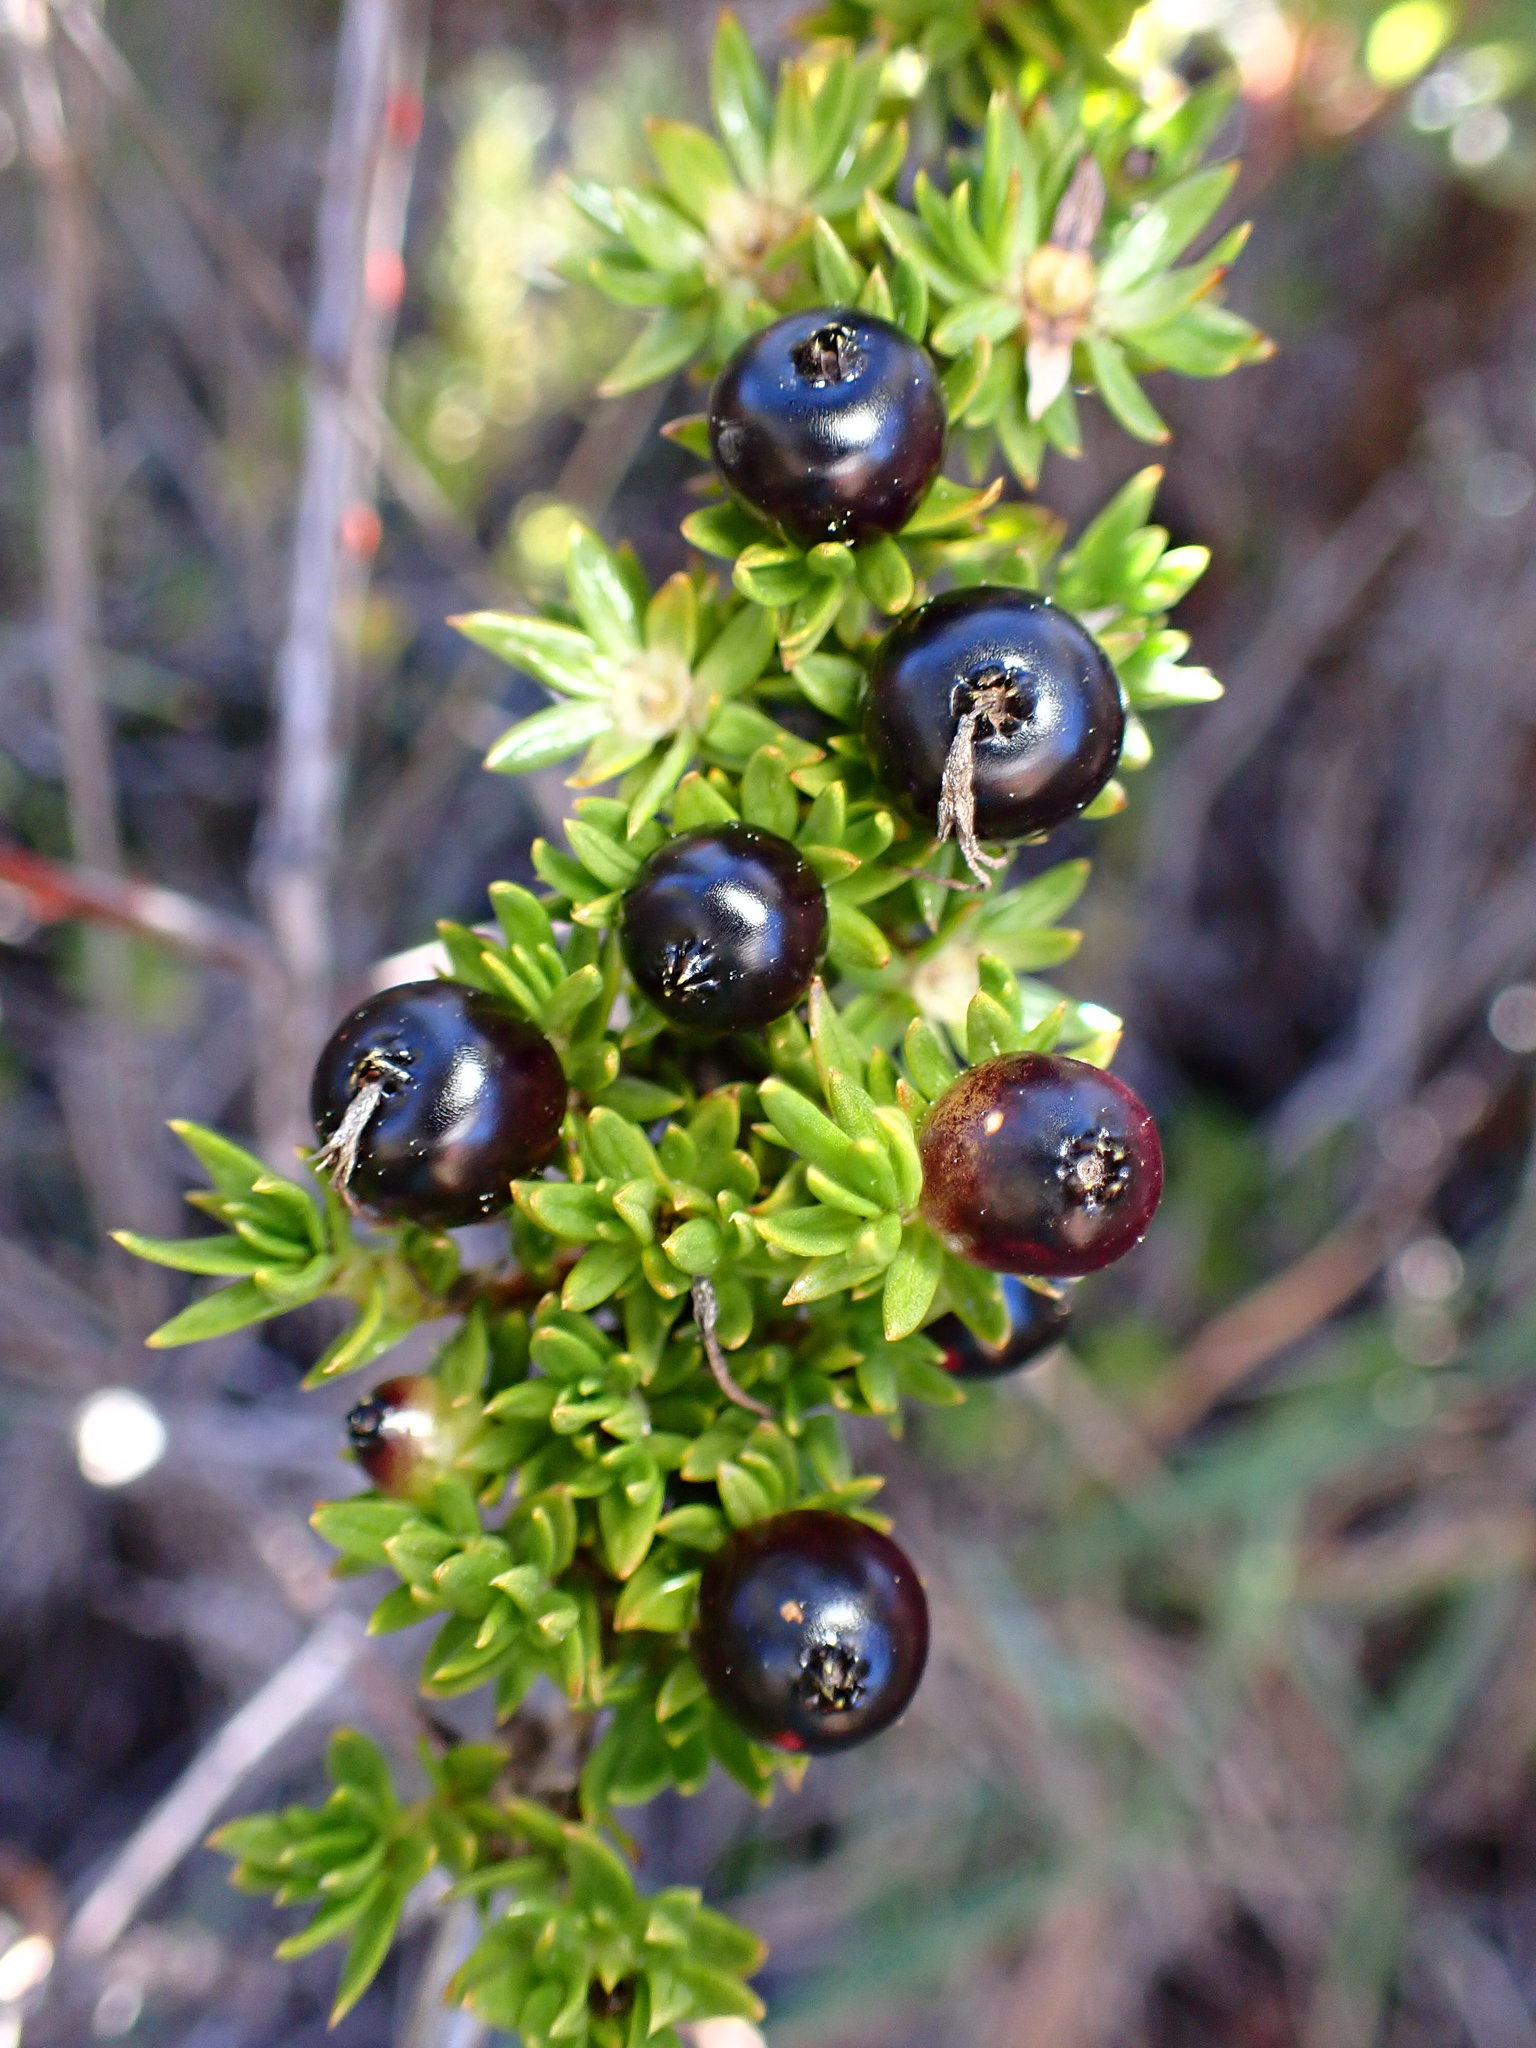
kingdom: Plantae
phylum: Tracheophyta
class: Magnoliopsida
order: Gentianales
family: Rubiaceae
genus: Coprosma
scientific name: Coprosma ernodeoides
